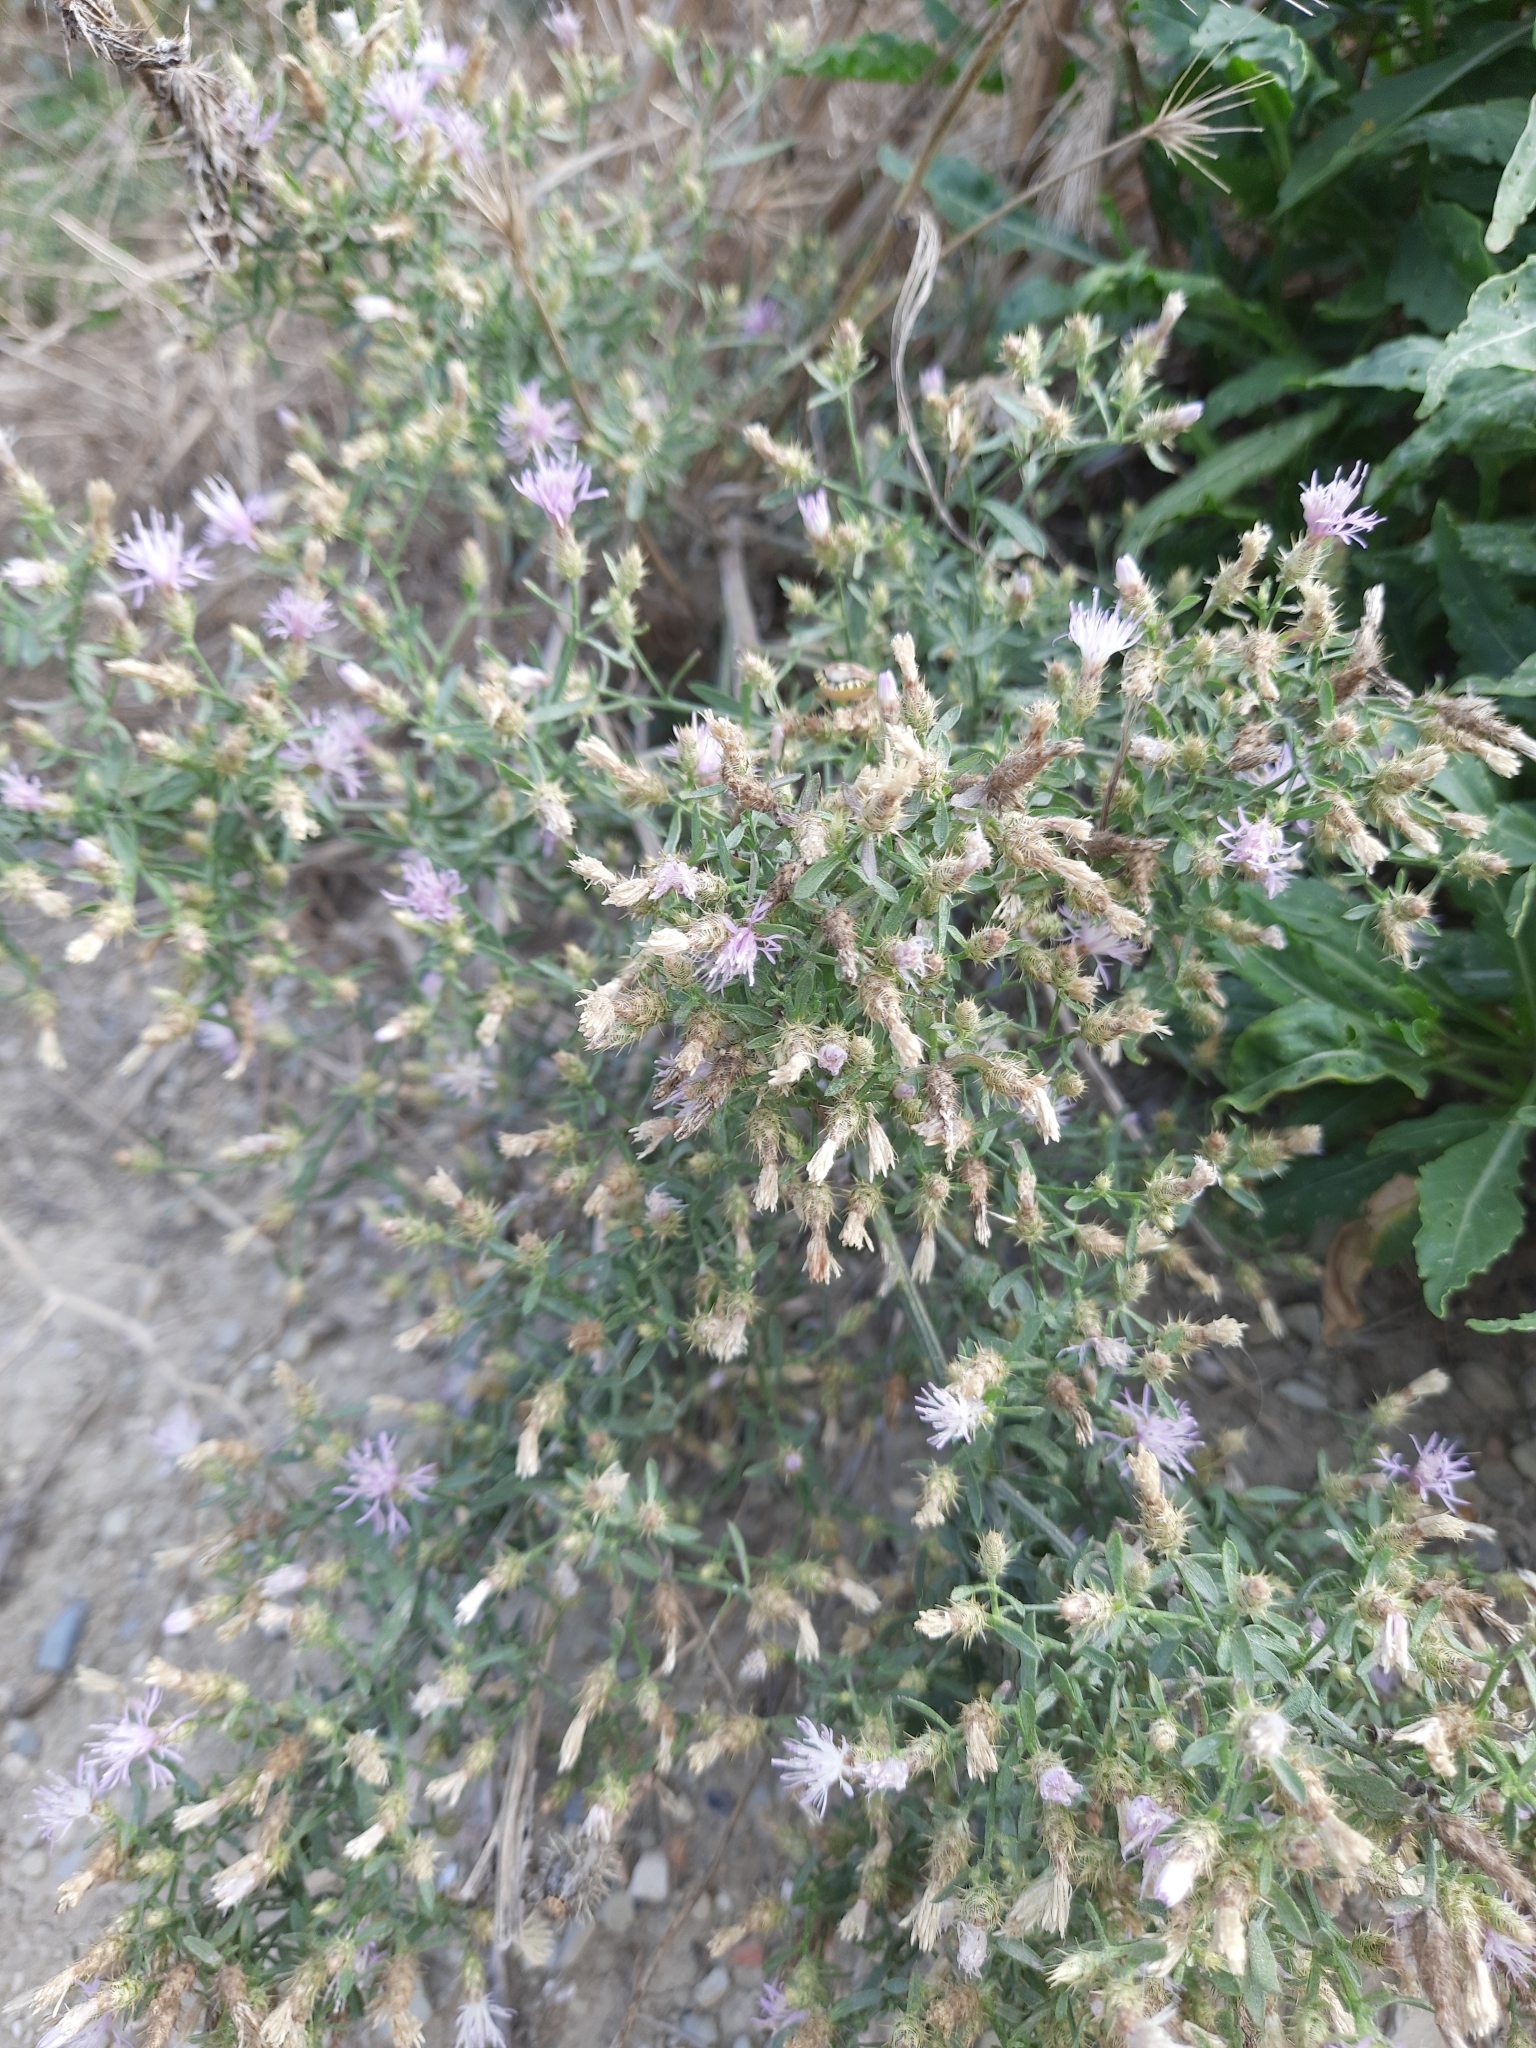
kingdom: Plantae
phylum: Tracheophyta
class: Magnoliopsida
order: Asterales
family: Asteraceae
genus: Centaurea
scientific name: Centaurea diffusa
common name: Diffuse knapweed
